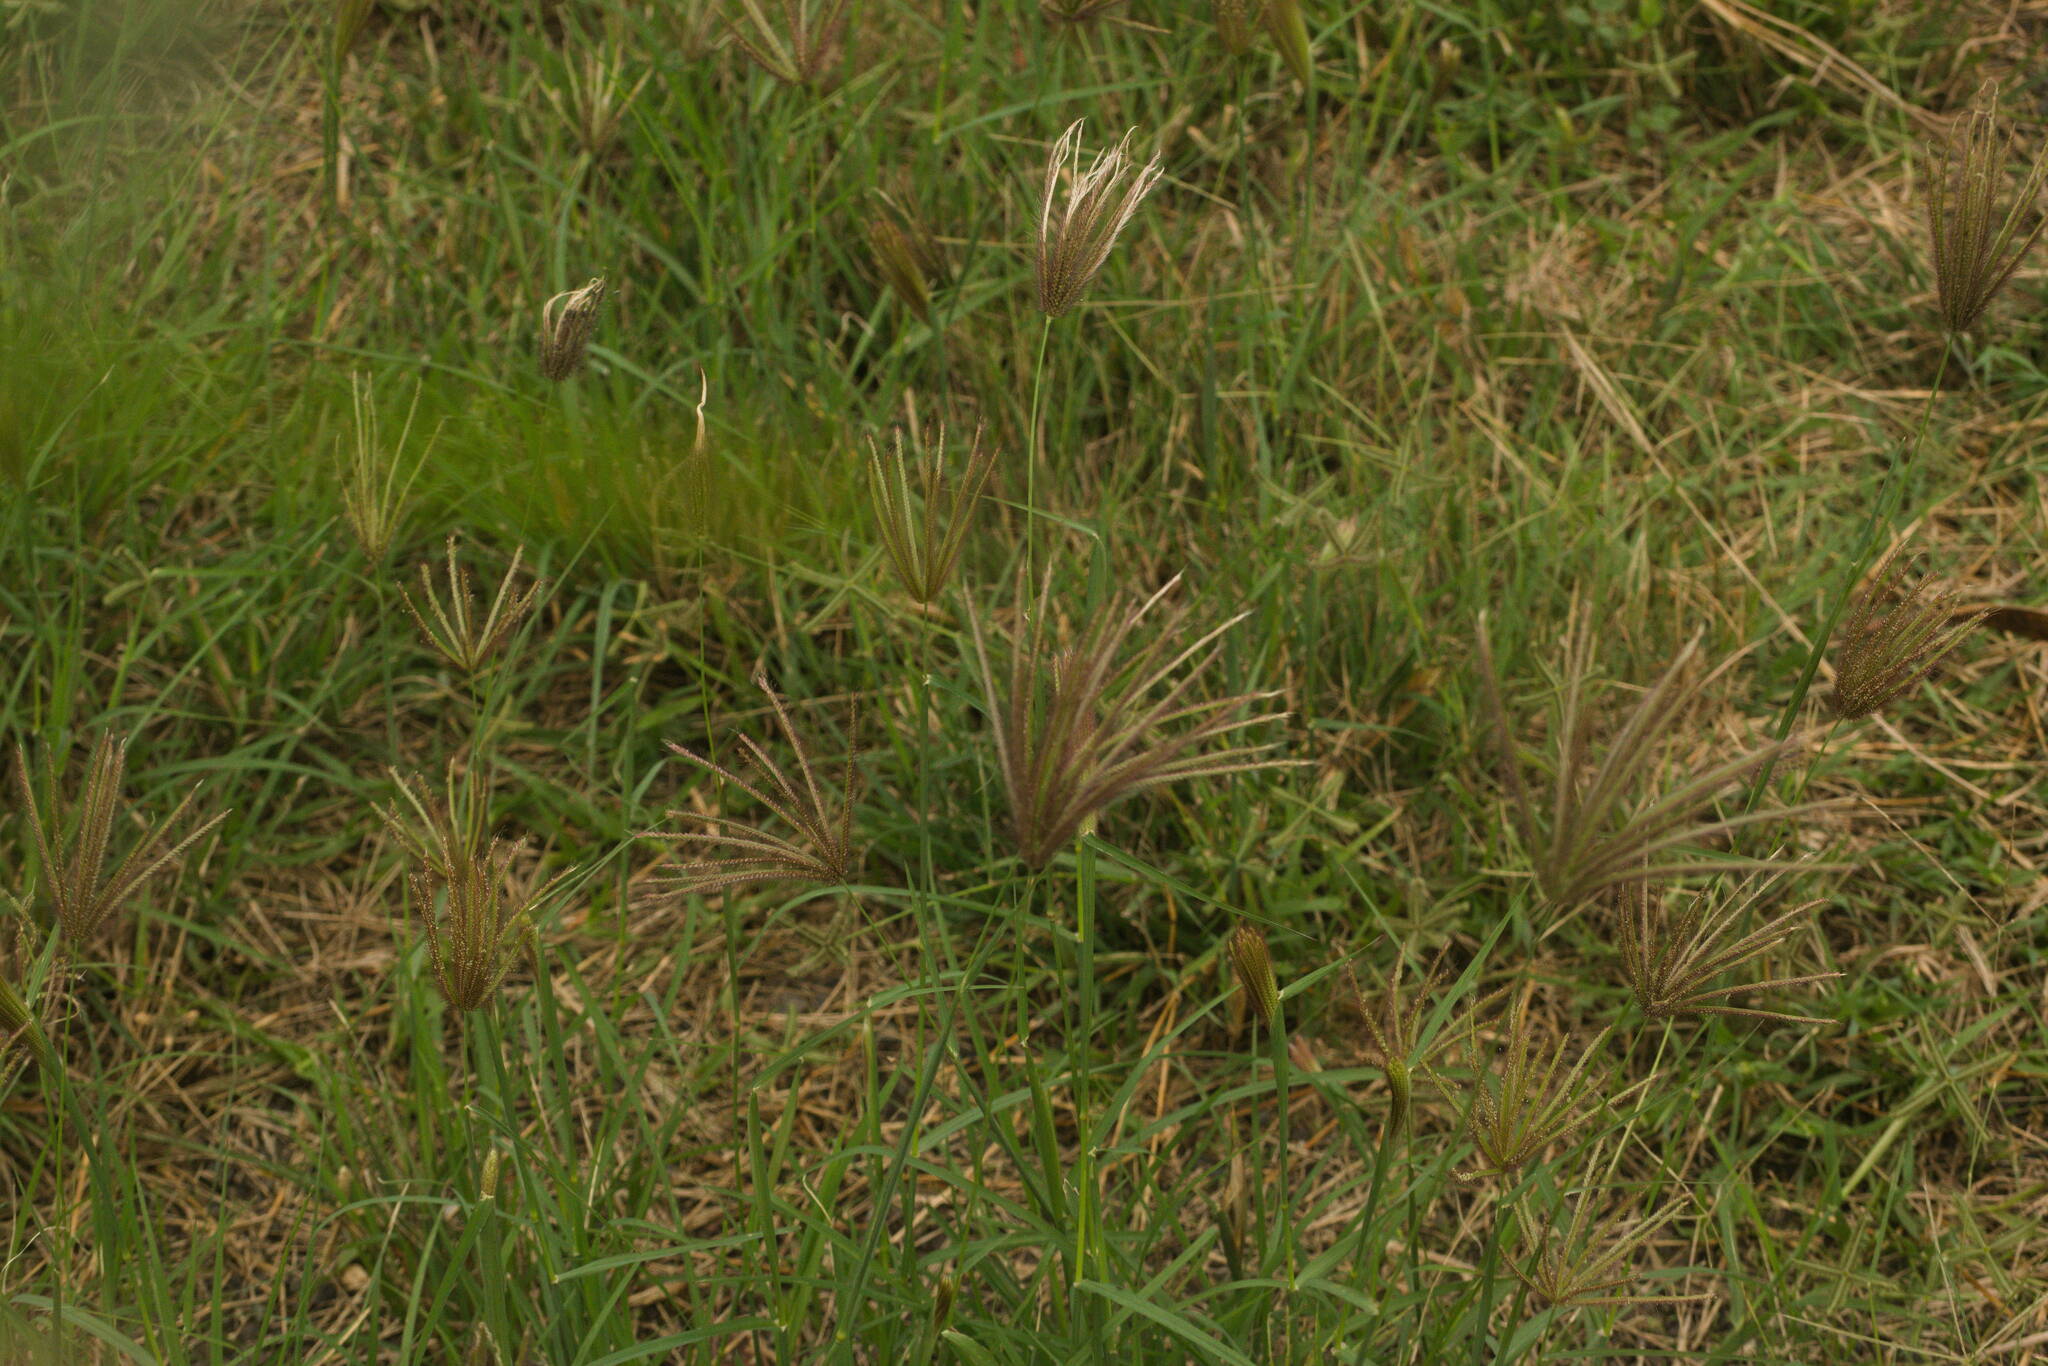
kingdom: Plantae
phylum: Tracheophyta
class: Liliopsida
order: Poales
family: Poaceae
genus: Chloris
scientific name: Chloris barbata
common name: Swollen fingergrass
